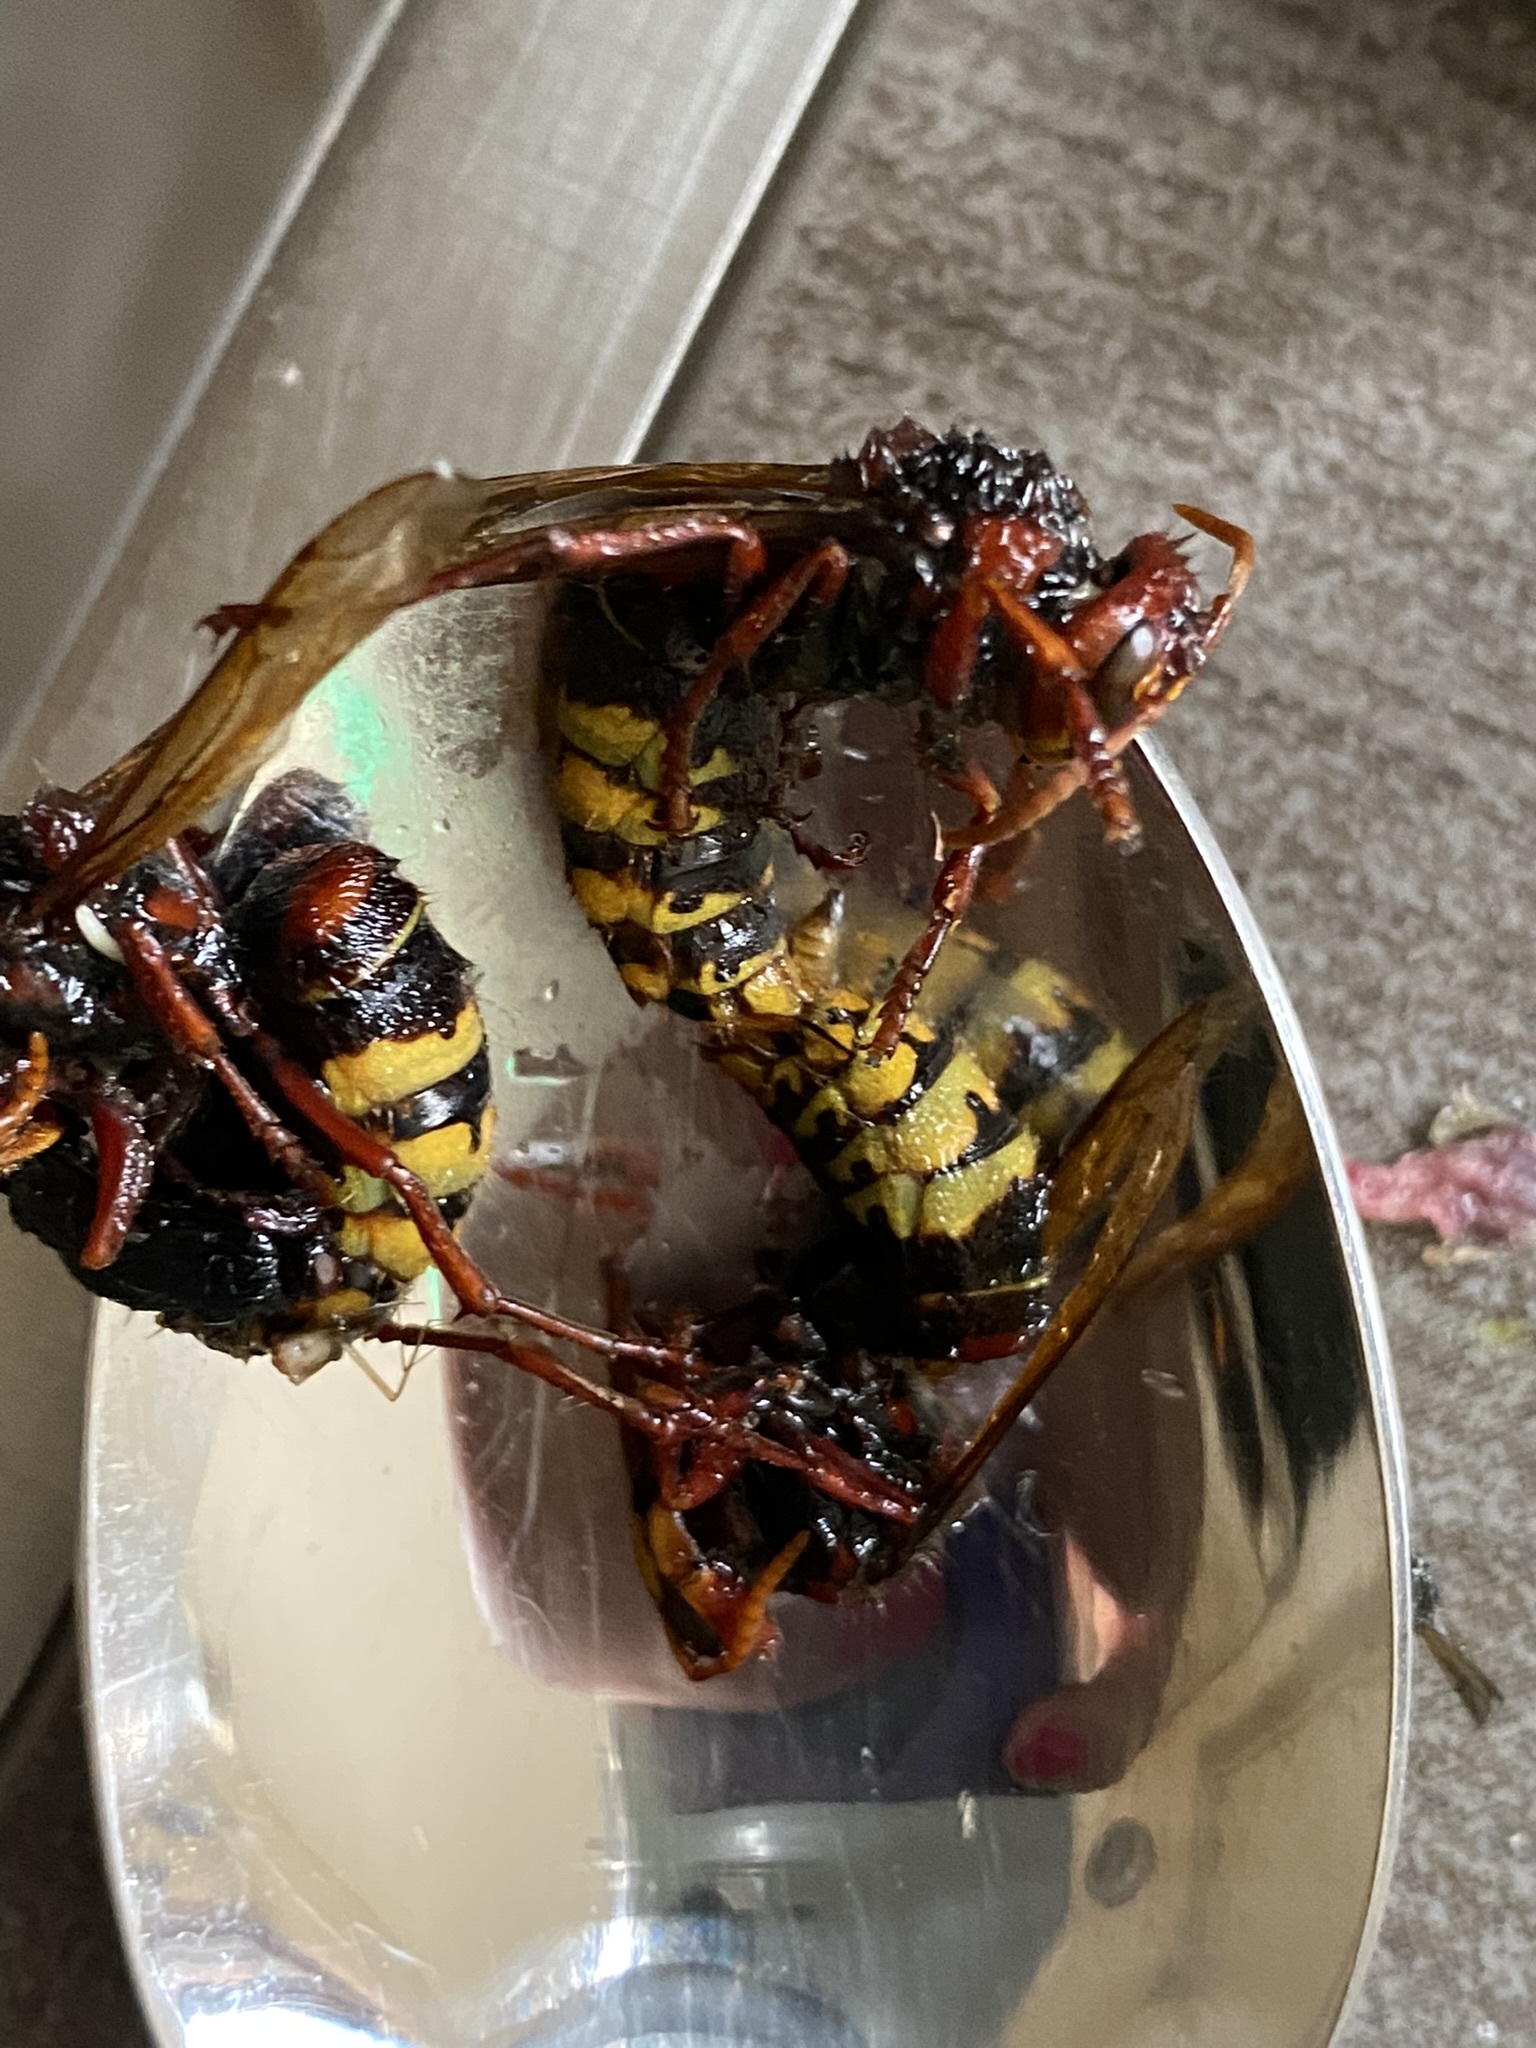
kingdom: Animalia
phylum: Arthropoda
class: Insecta
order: Hymenoptera
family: Vespidae
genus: Vespa
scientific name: Vespa crabro
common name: Hornet
